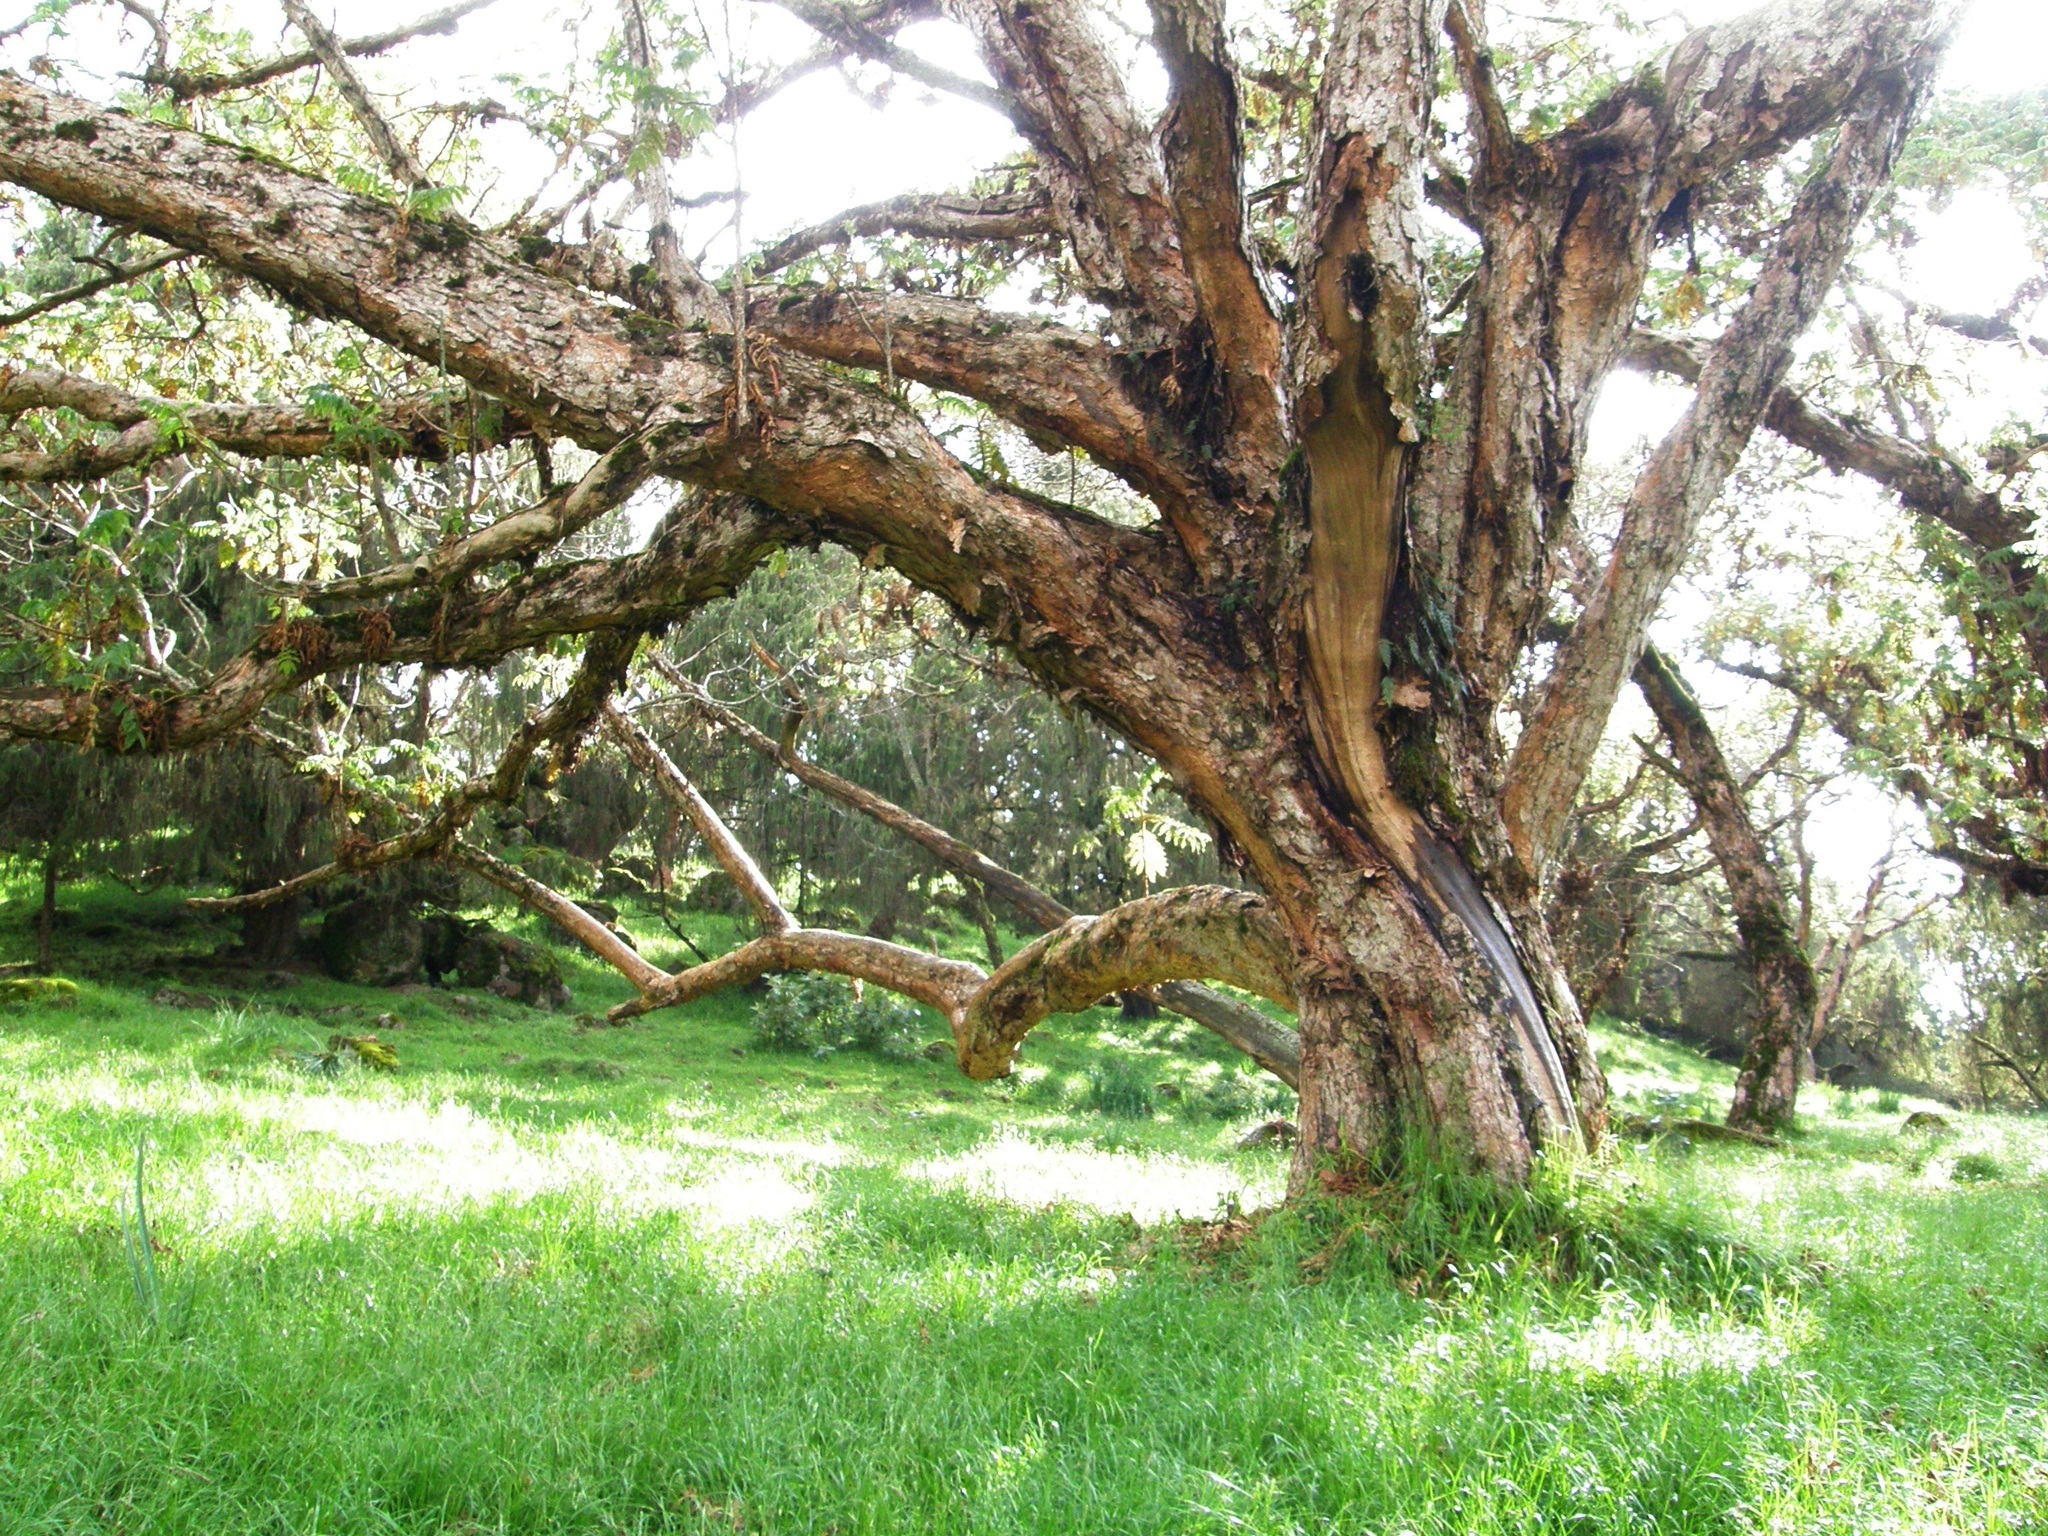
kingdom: Plantae
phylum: Tracheophyta
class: Magnoliopsida
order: Rosales
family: Rosaceae
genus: Hagenia
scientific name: Hagenia abyssinica
